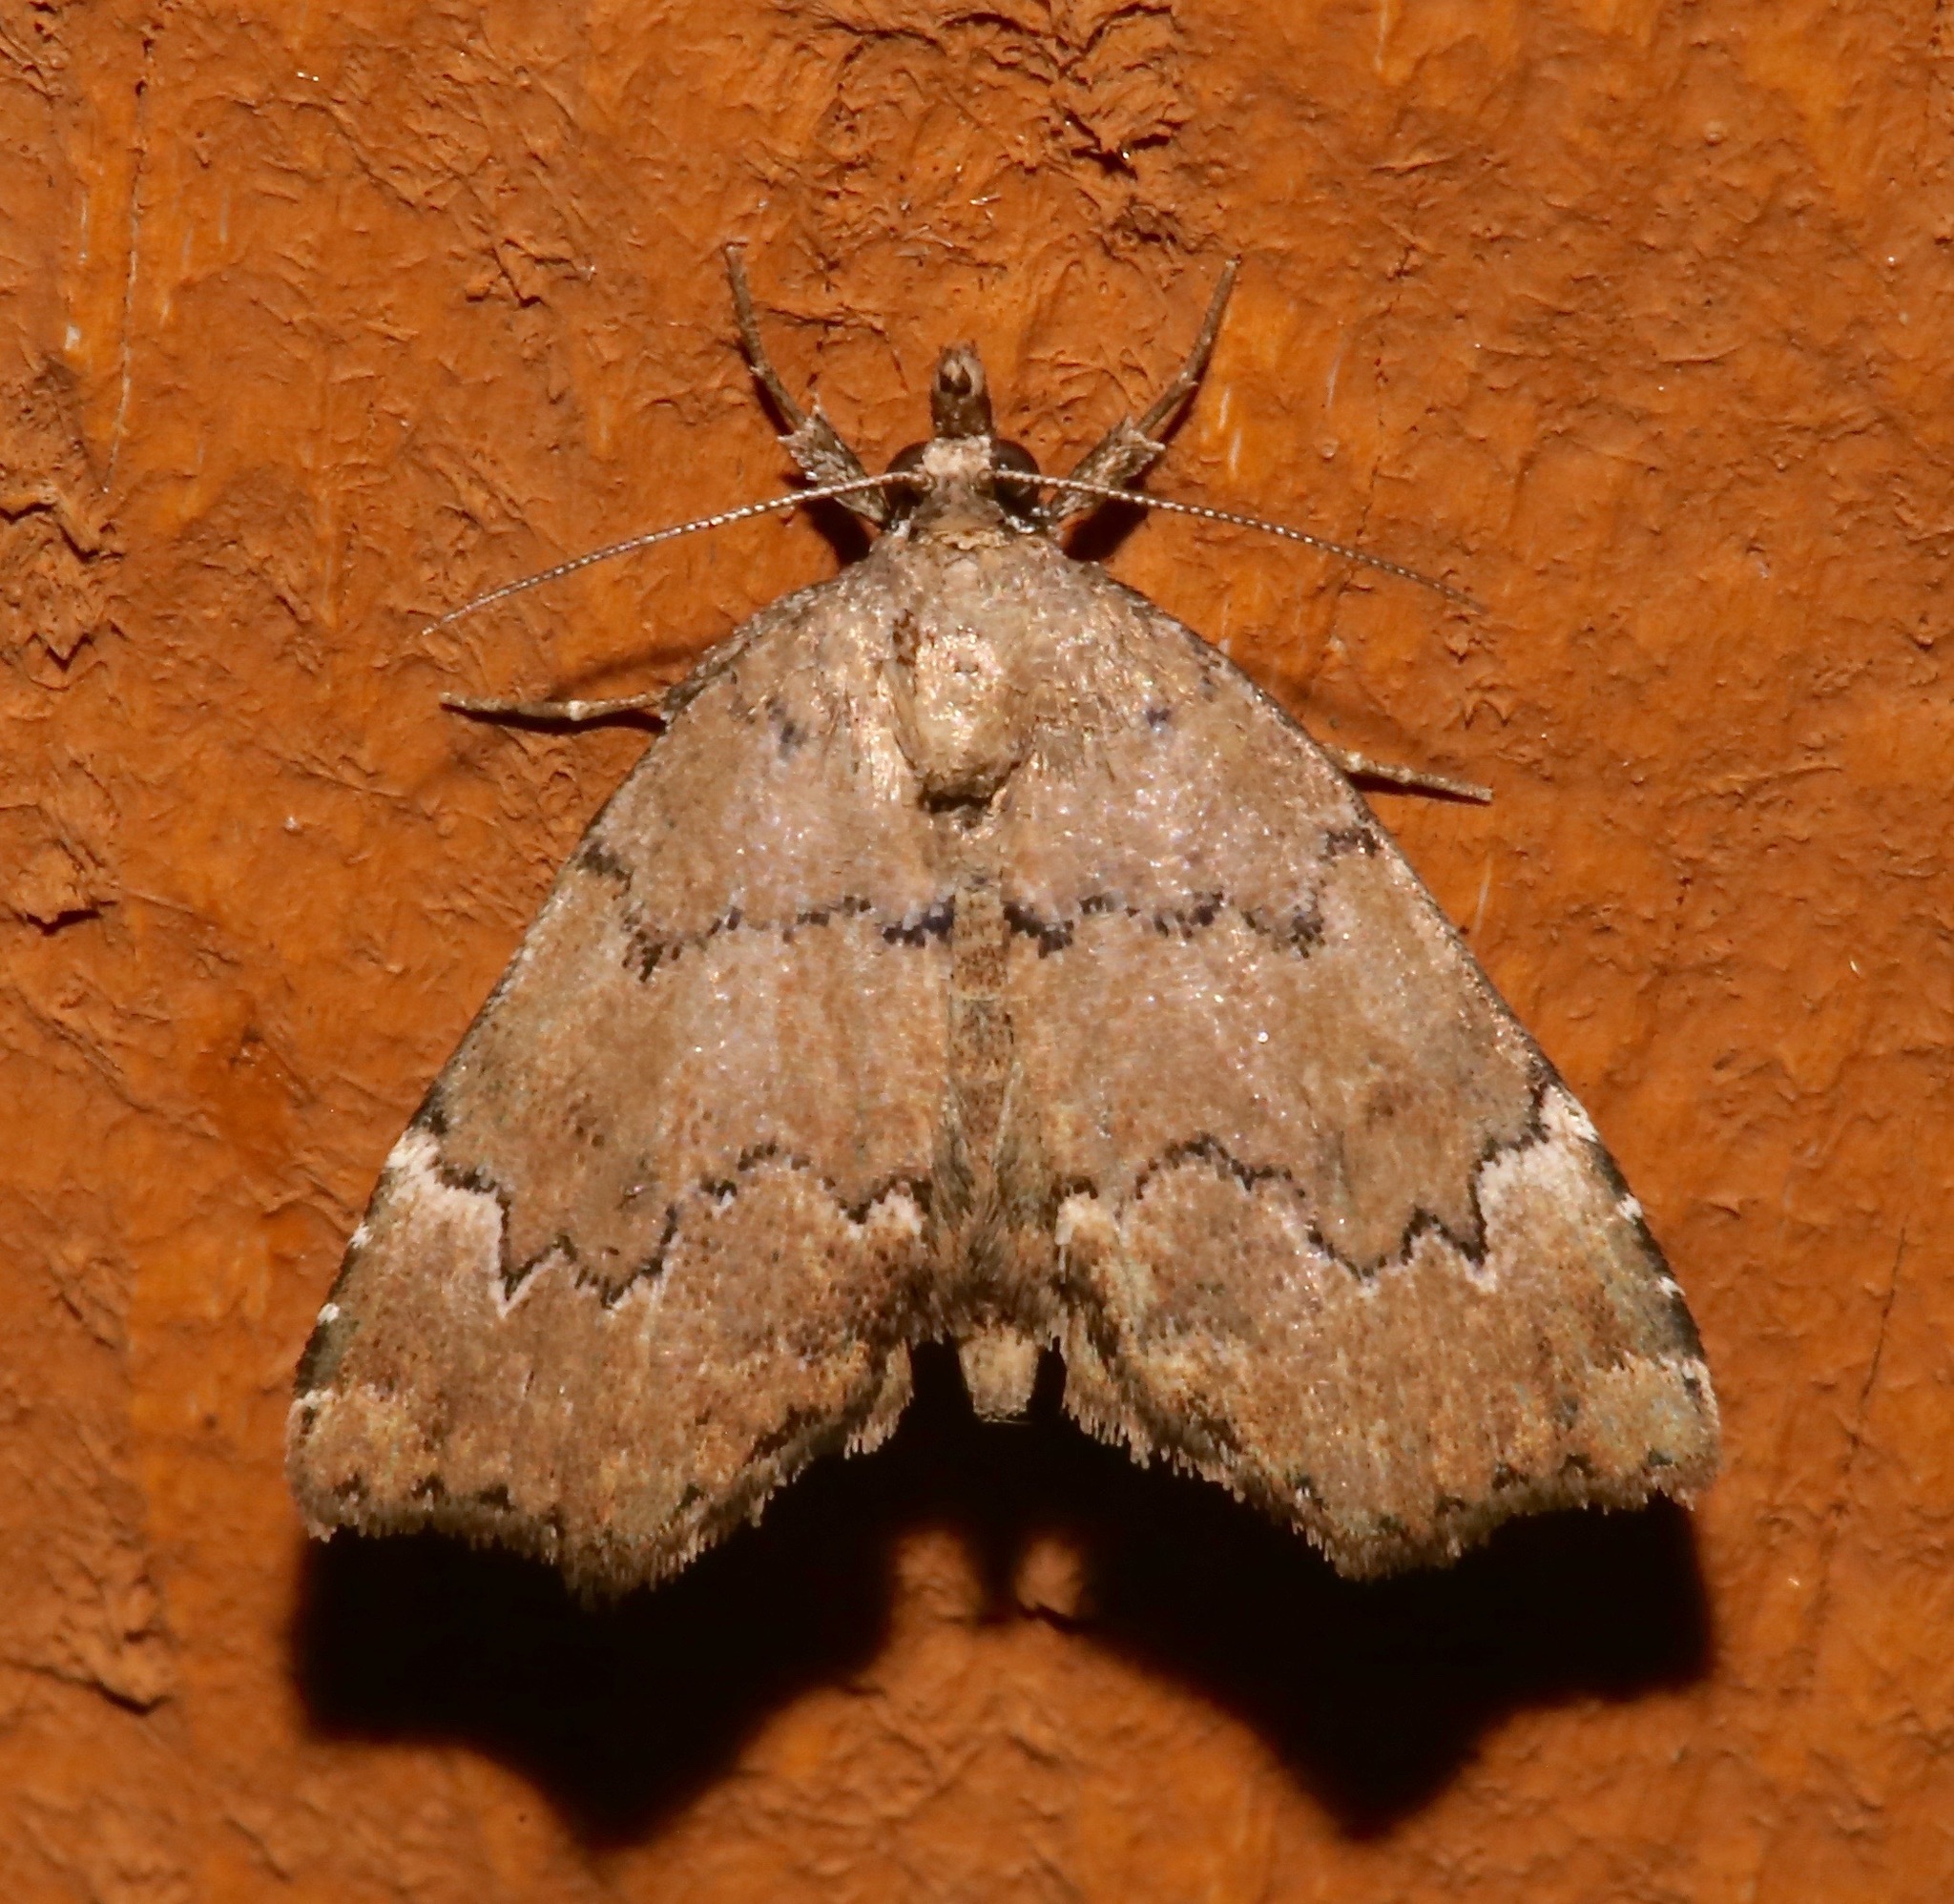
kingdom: Animalia
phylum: Arthropoda
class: Insecta
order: Lepidoptera
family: Erebidae
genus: Cutina
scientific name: Cutina aluticolor
